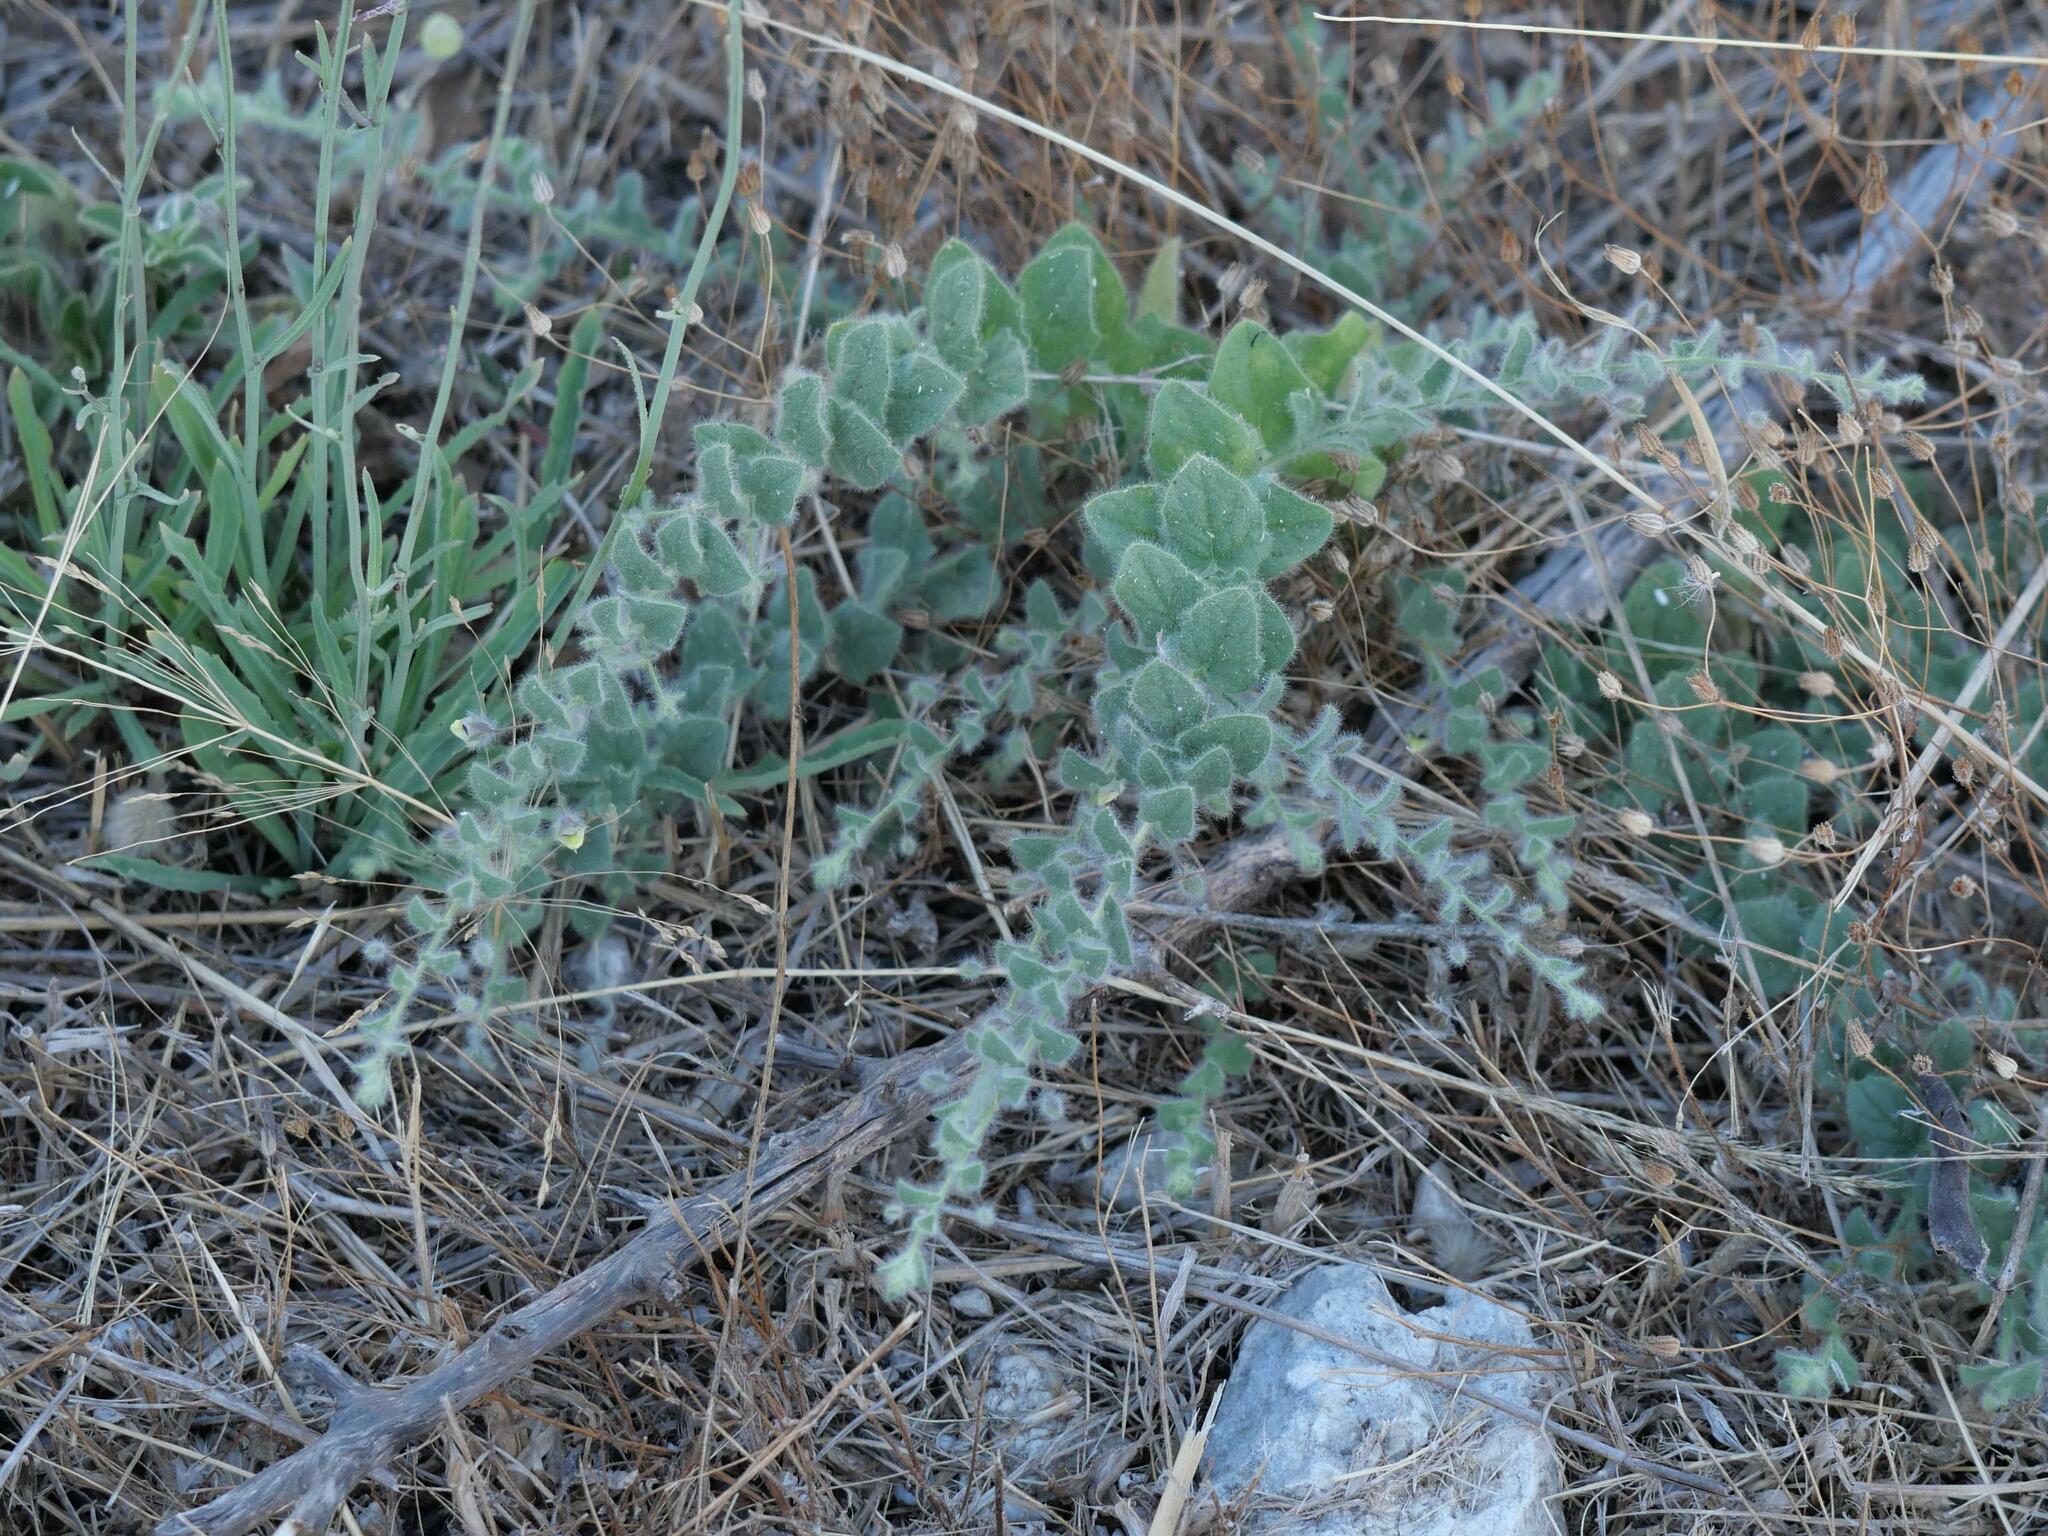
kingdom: Plantae
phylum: Tracheophyta
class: Magnoliopsida
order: Lamiales
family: Plantaginaceae
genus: Kickxia
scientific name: Kickxia elatine
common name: Sharp-leaved fluellen
